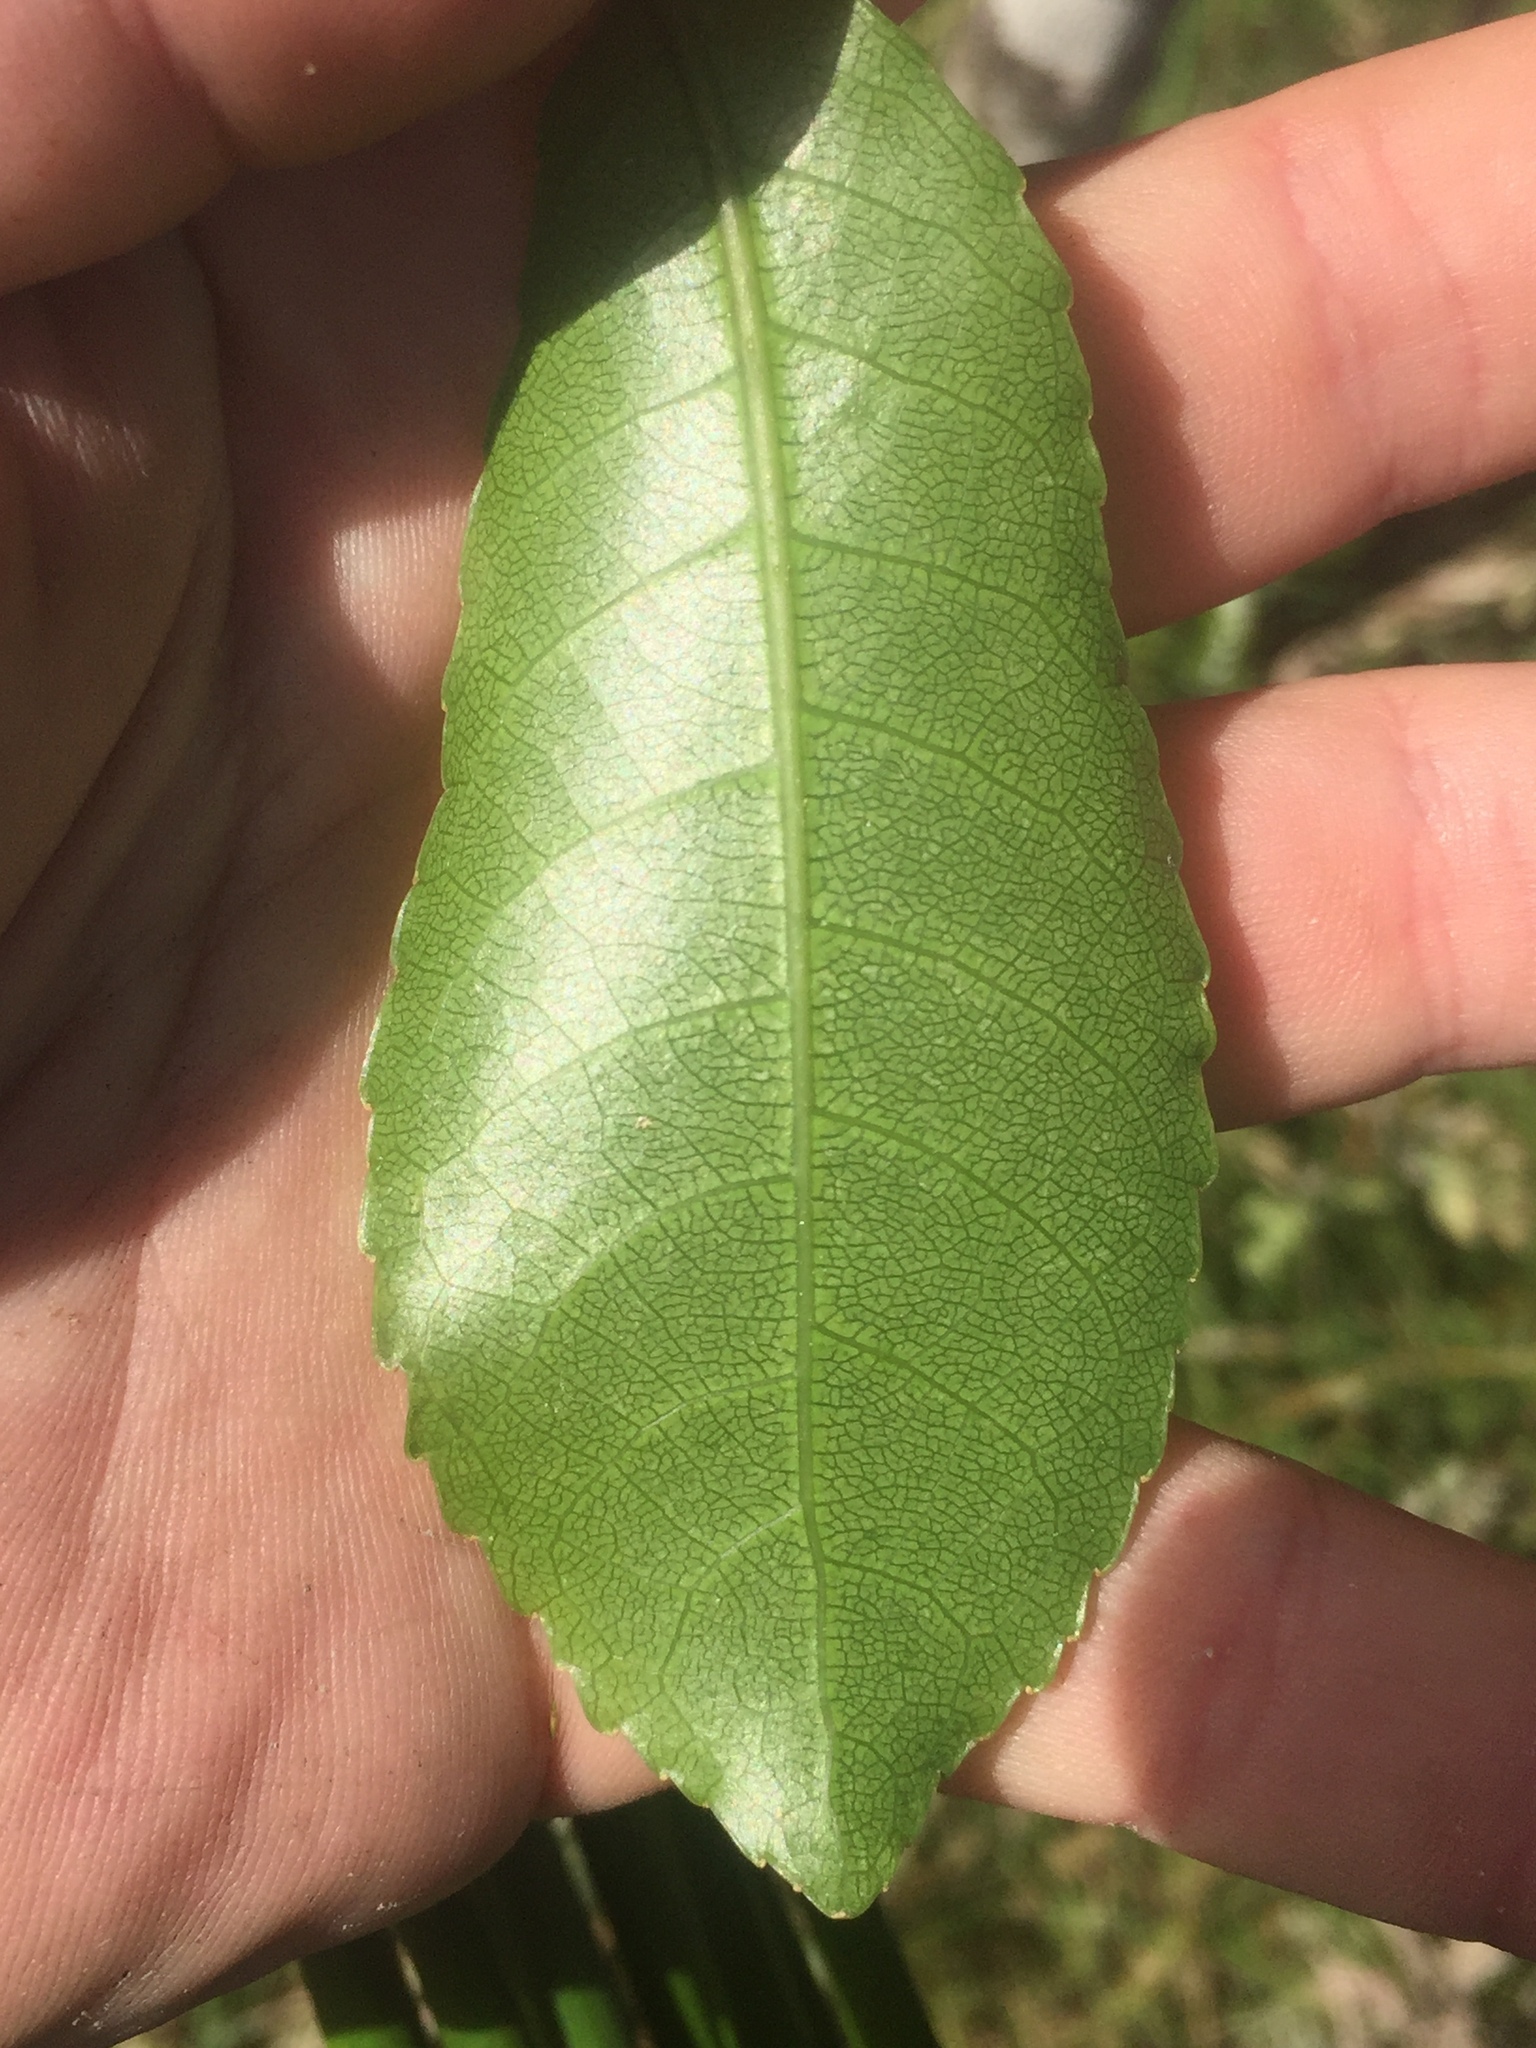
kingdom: Plantae
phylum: Tracheophyta
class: Magnoliopsida
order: Malpighiales
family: Violaceae
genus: Melicytus
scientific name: Melicytus ramiflorus
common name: Mahoe
